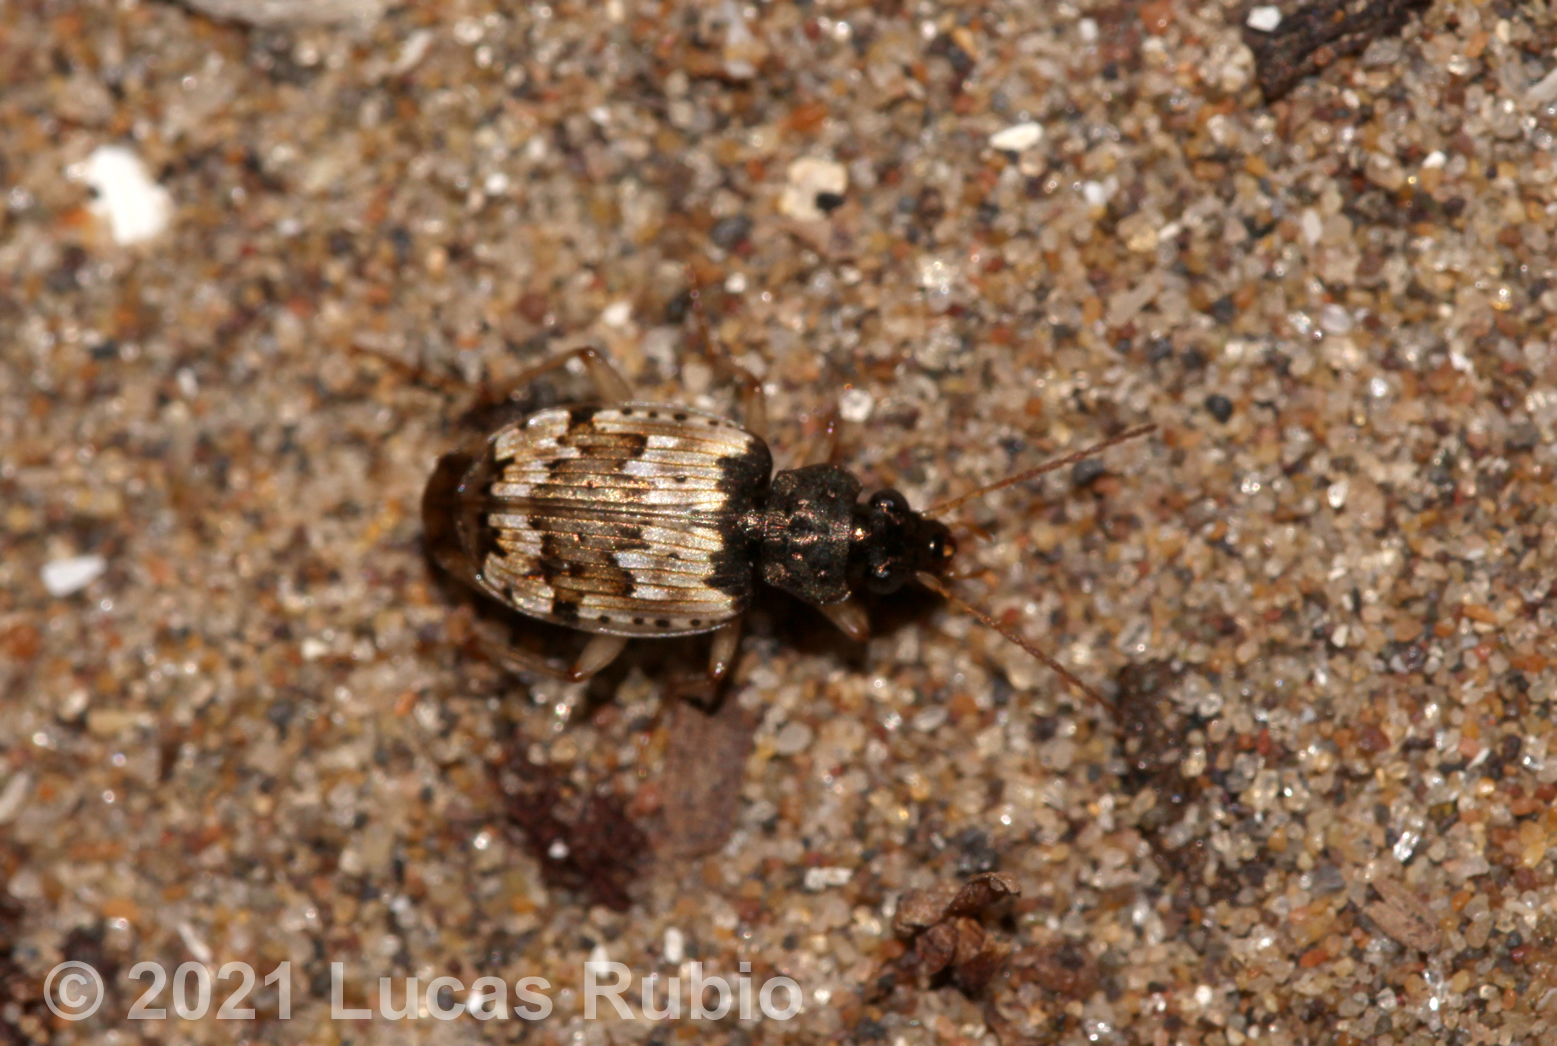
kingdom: Animalia
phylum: Arthropoda
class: Insecta
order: Coleoptera
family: Carabidae
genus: Tetragonoderus
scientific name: Tetragonoderus pictus
